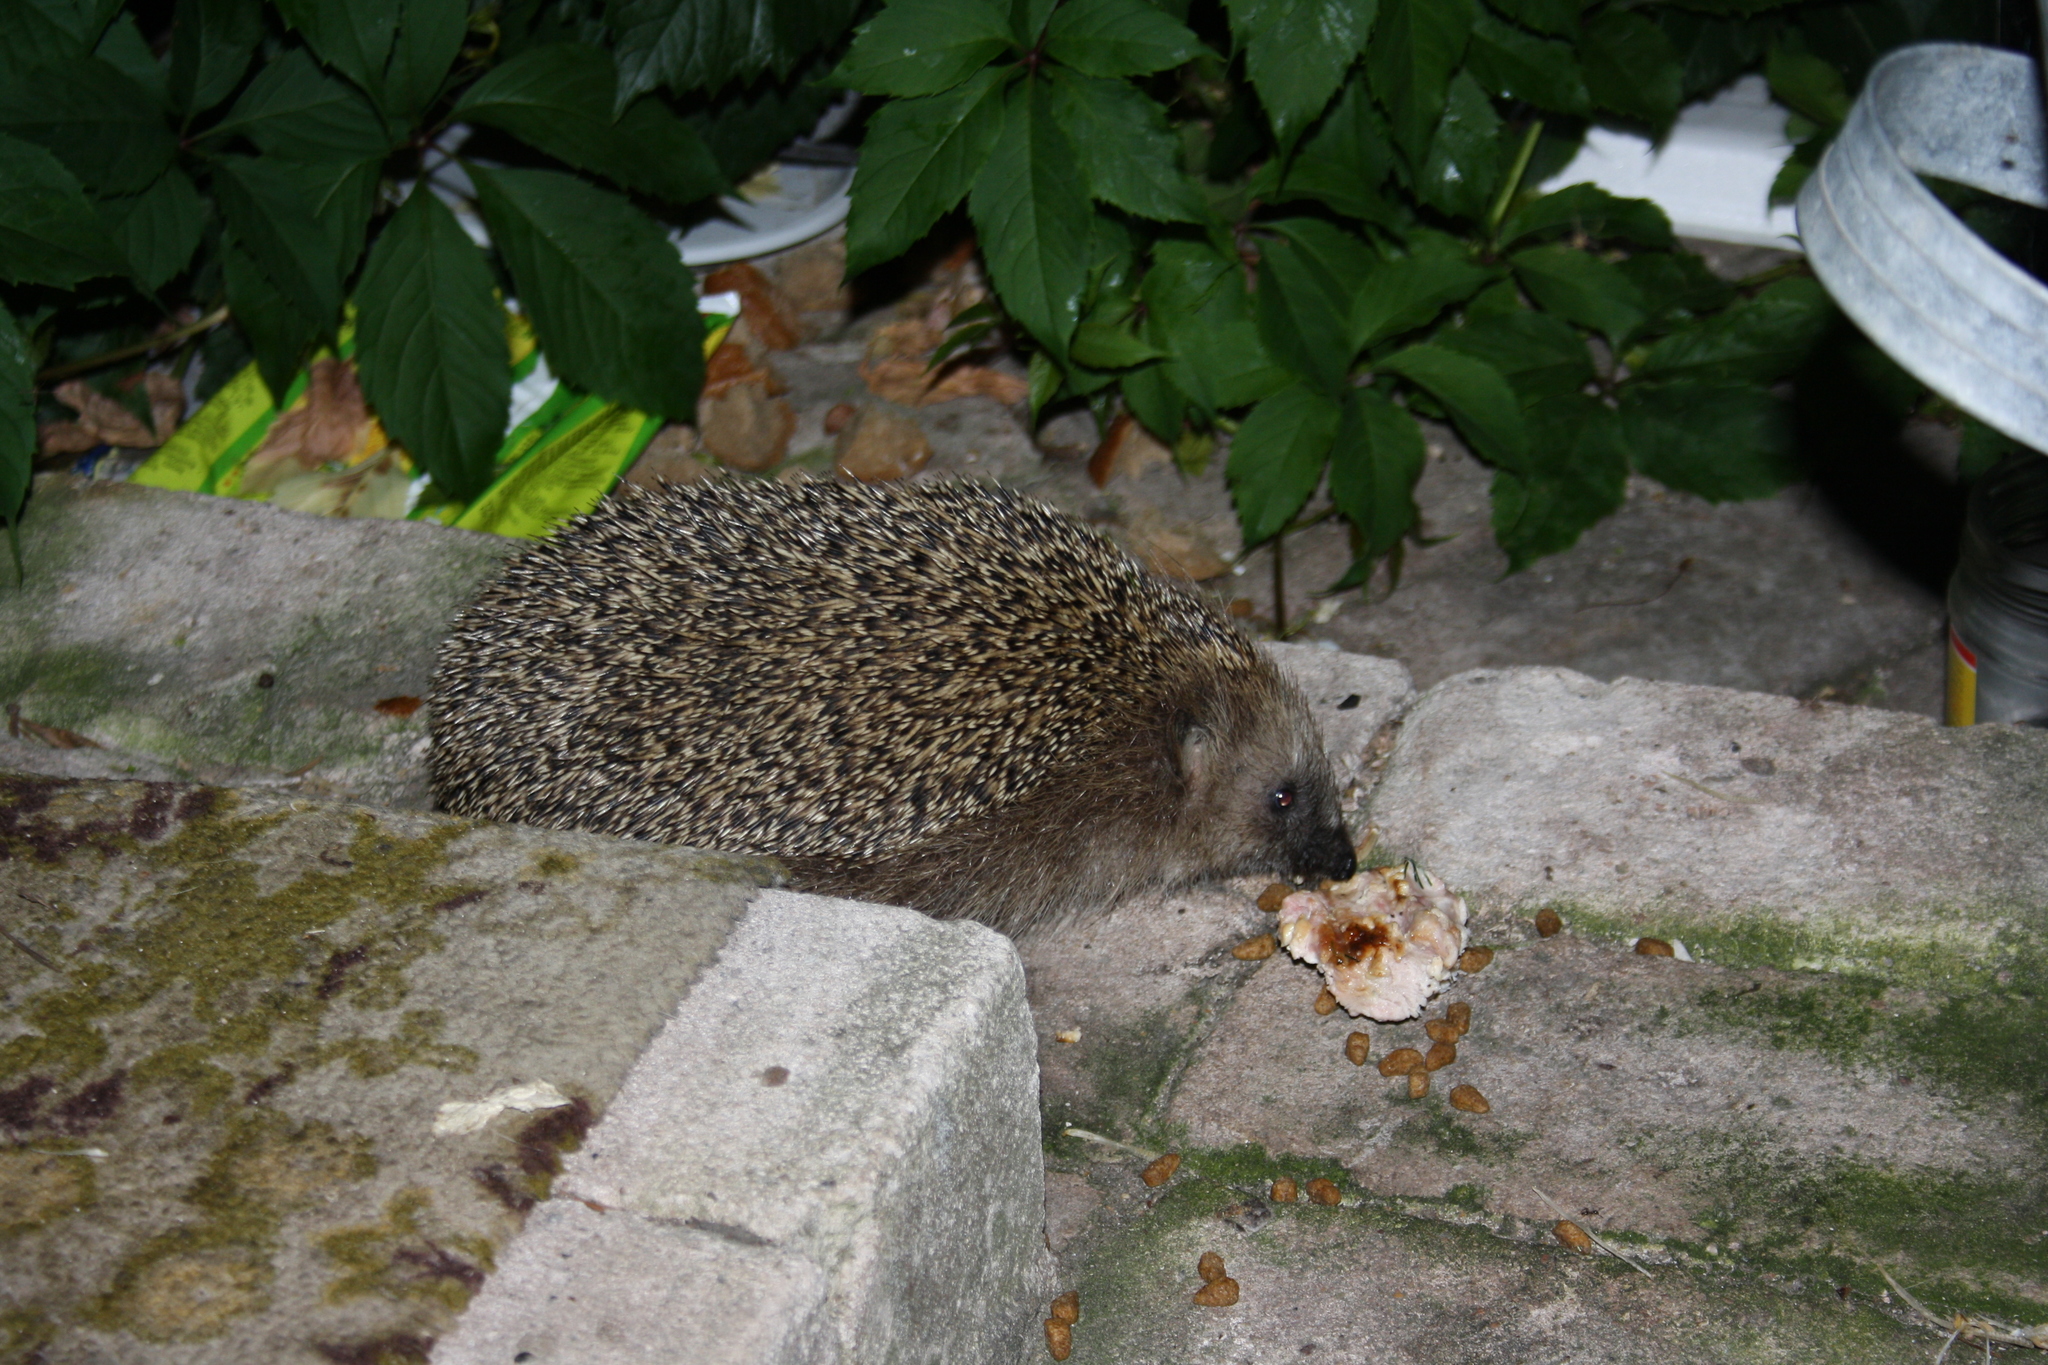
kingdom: Animalia
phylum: Chordata
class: Mammalia
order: Erinaceomorpha
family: Erinaceidae
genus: Erinaceus
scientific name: Erinaceus europaeus
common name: West european hedgehog
